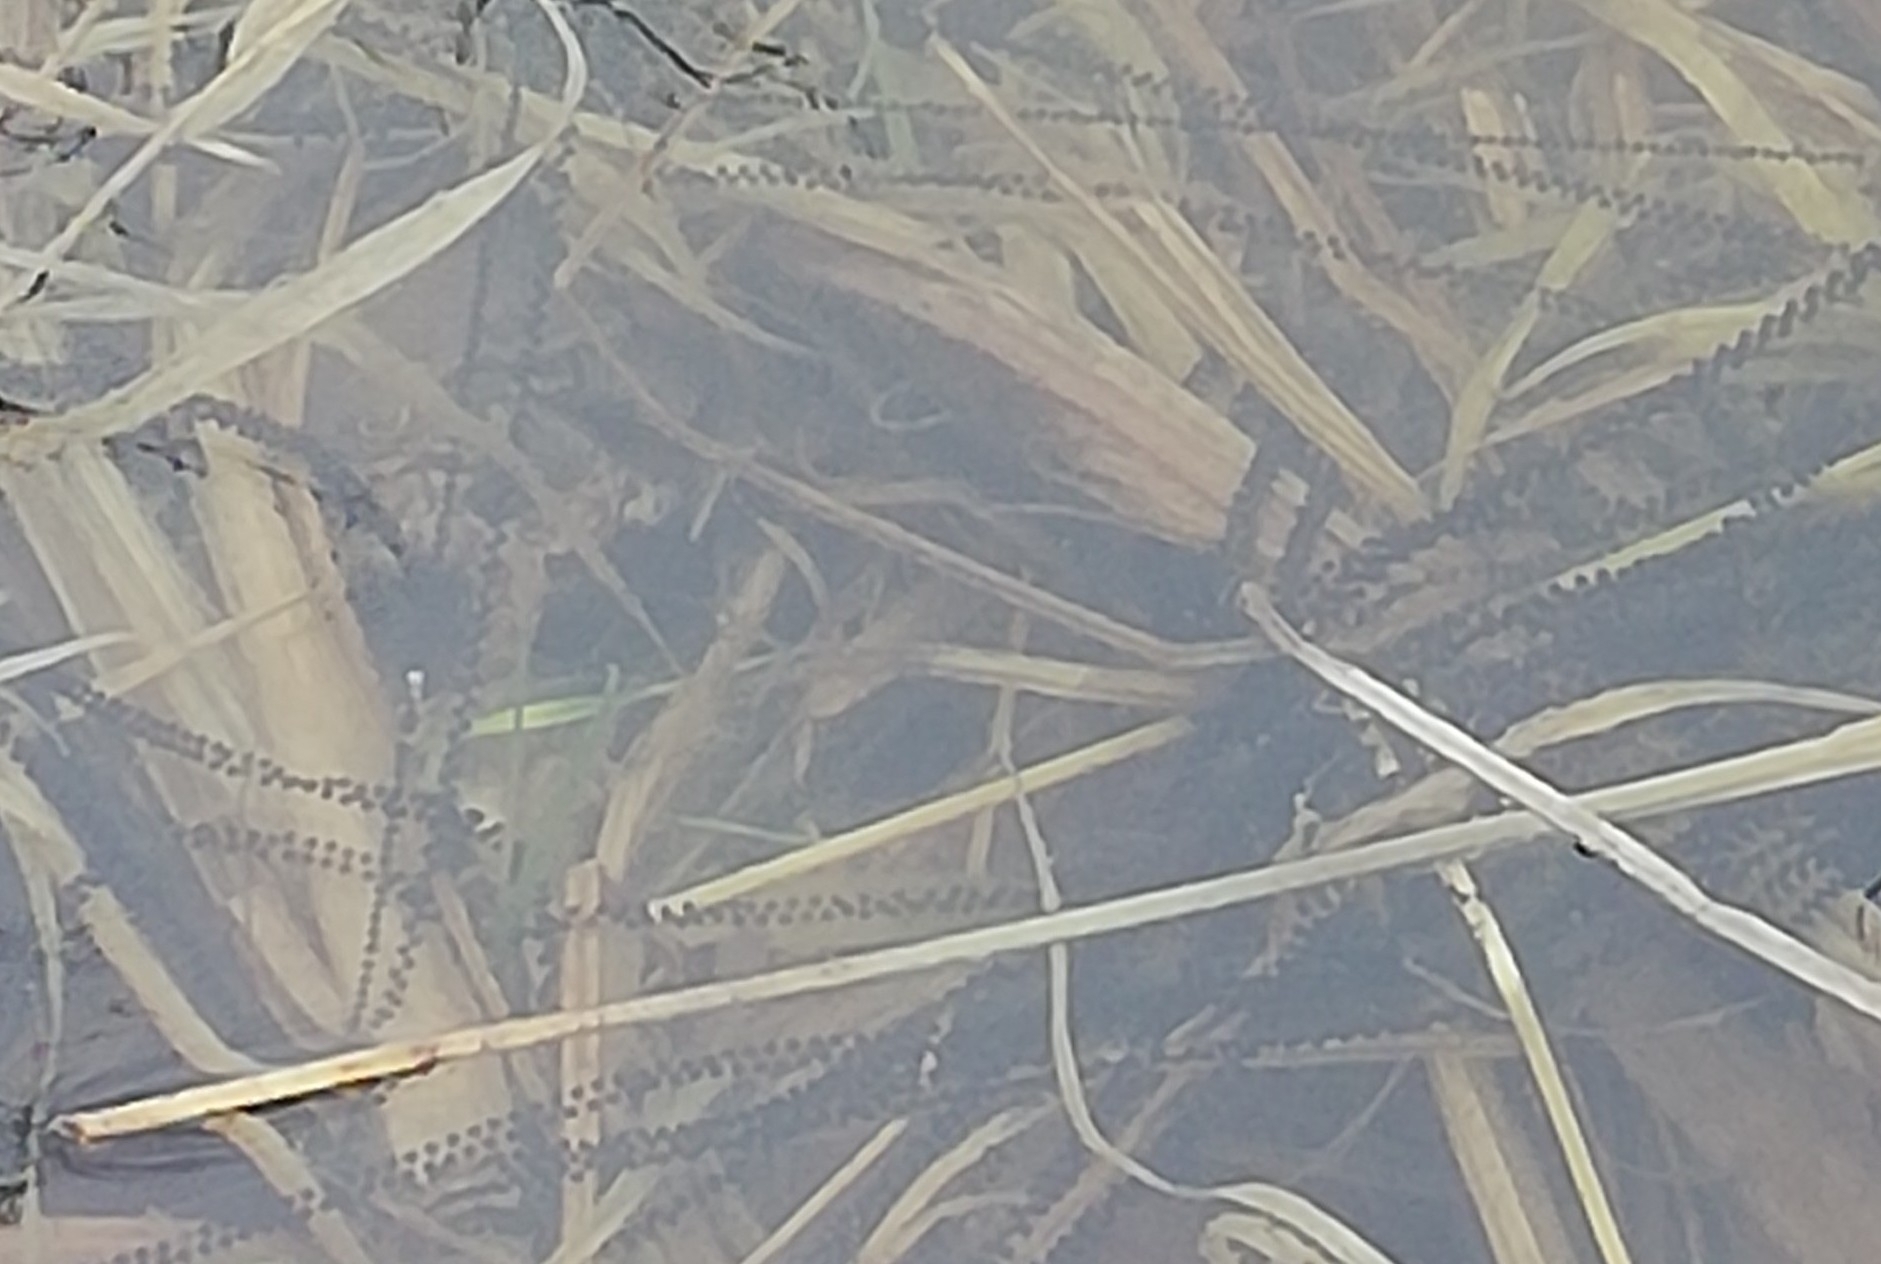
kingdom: Animalia
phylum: Chordata
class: Amphibia
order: Anura
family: Bufonidae
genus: Bufo
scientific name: Bufo bufo
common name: Common toad
